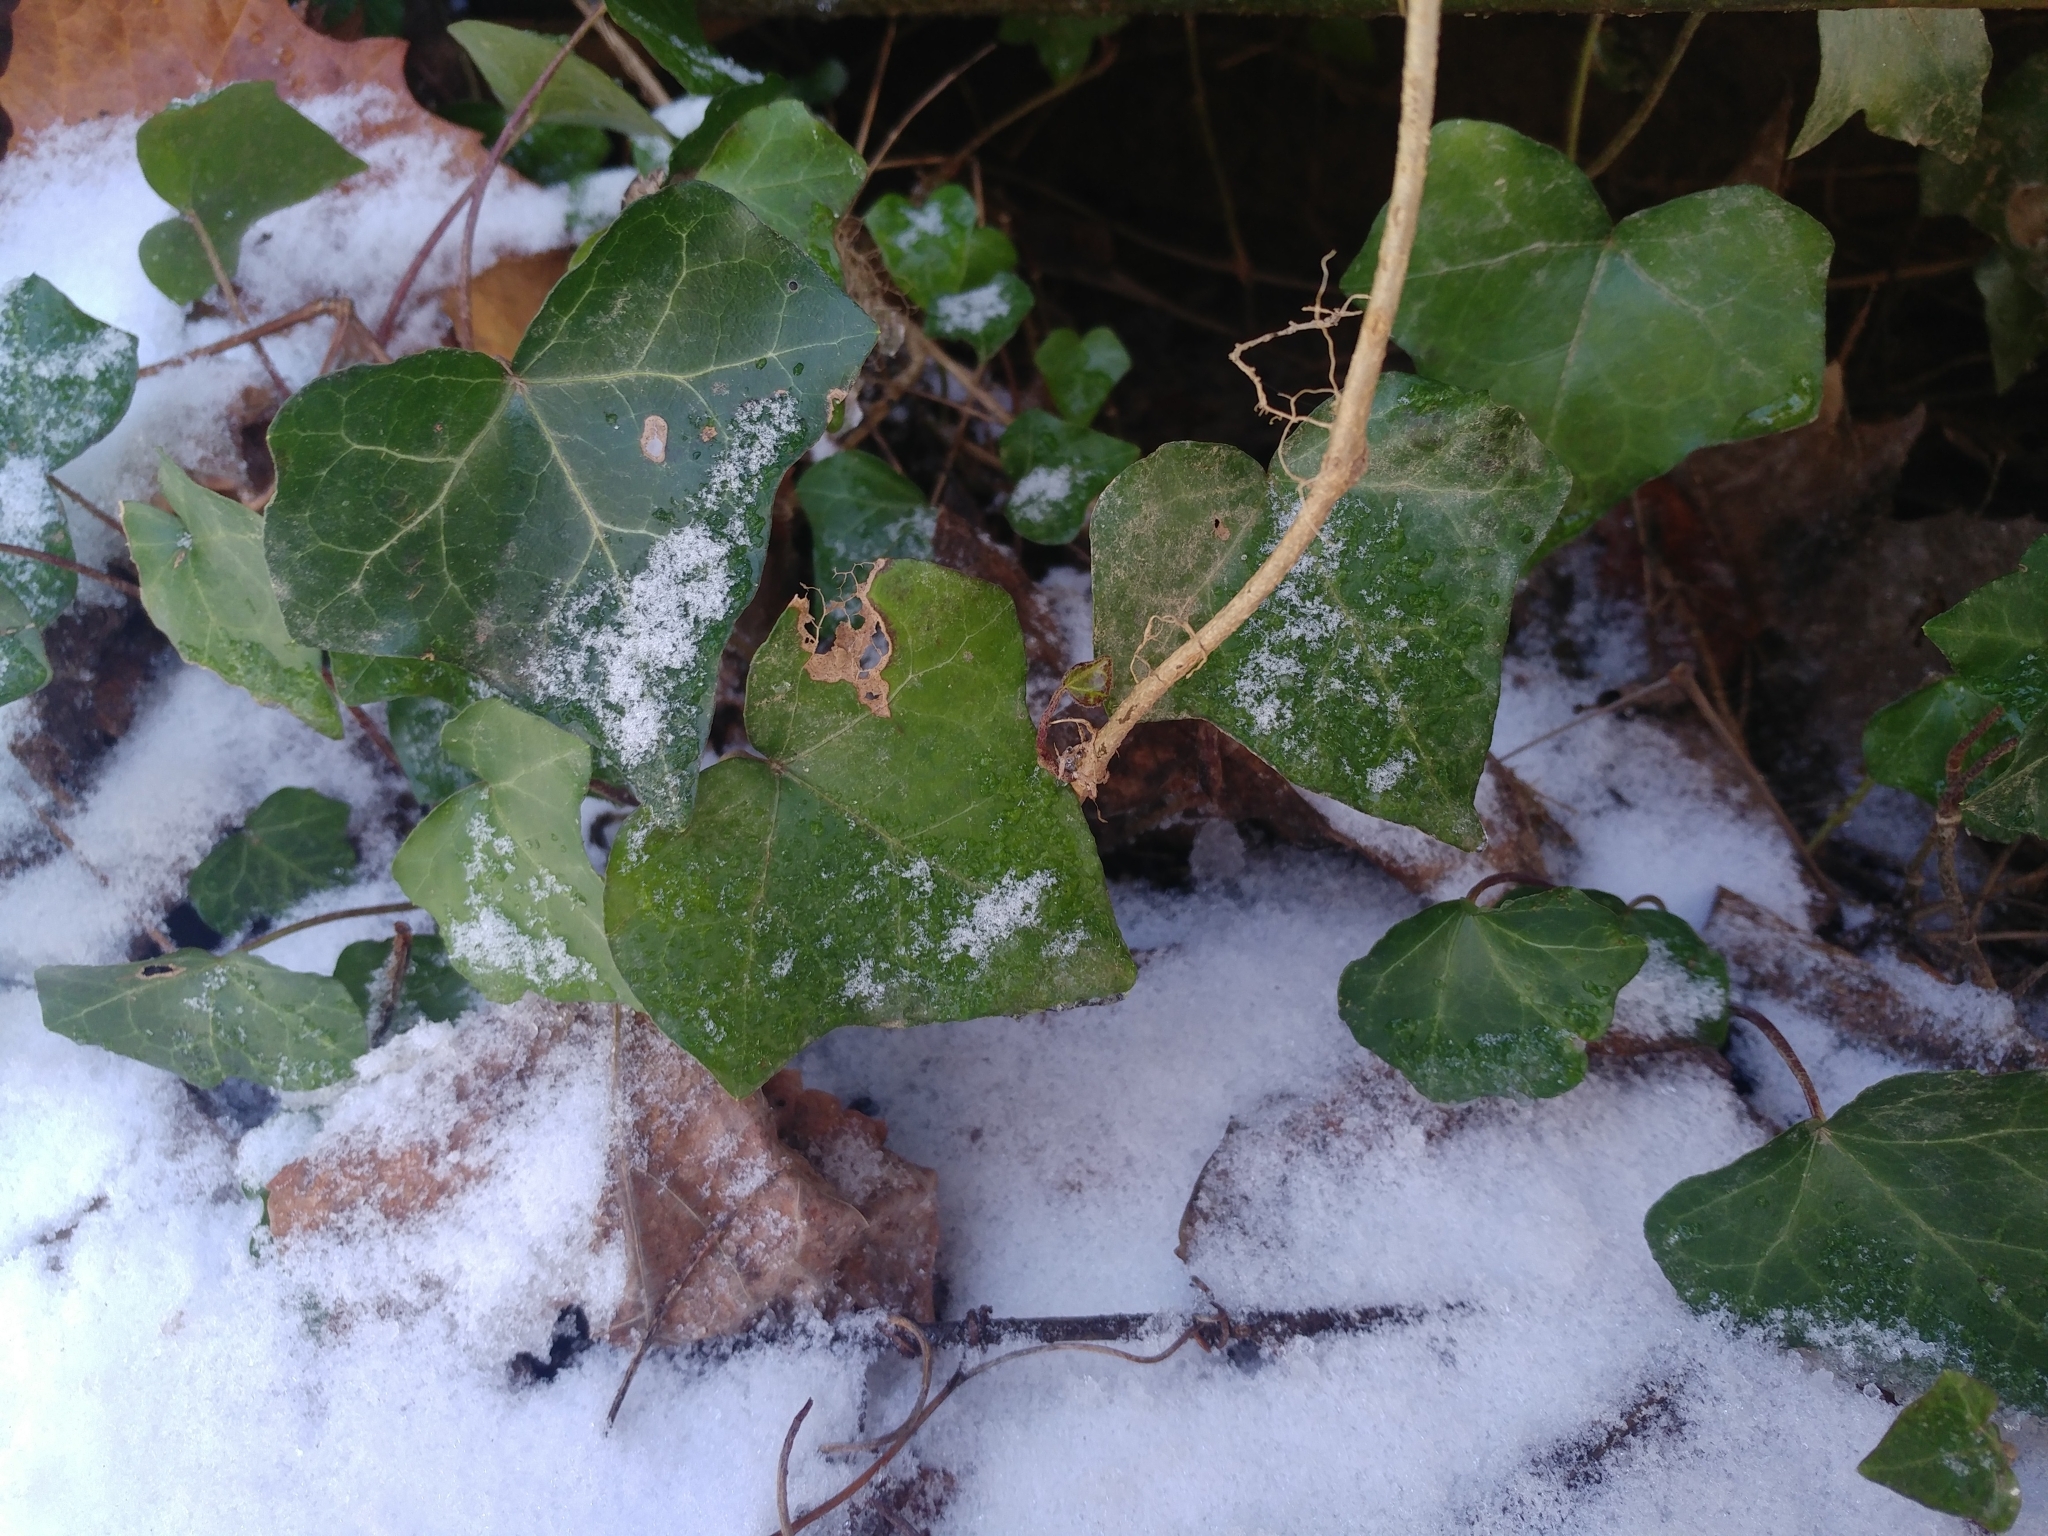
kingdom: Plantae
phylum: Tracheophyta
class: Magnoliopsida
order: Apiales
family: Araliaceae
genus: Hedera
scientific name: Hedera helix
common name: Ivy
